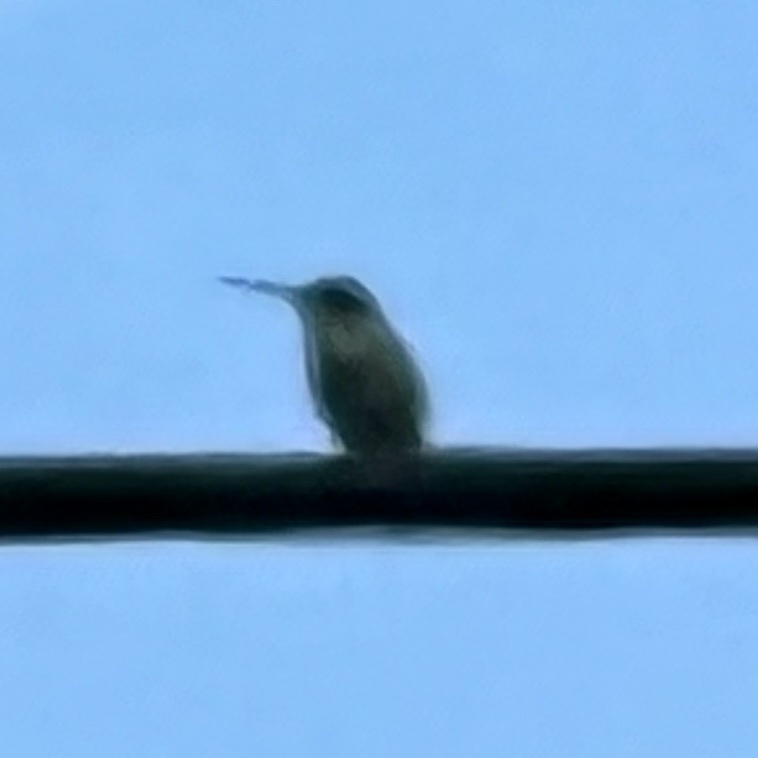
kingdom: Animalia
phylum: Chordata
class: Aves
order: Apodiformes
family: Trochilidae
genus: Archilochus
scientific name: Archilochus colubris
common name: Ruby-throated hummingbird
